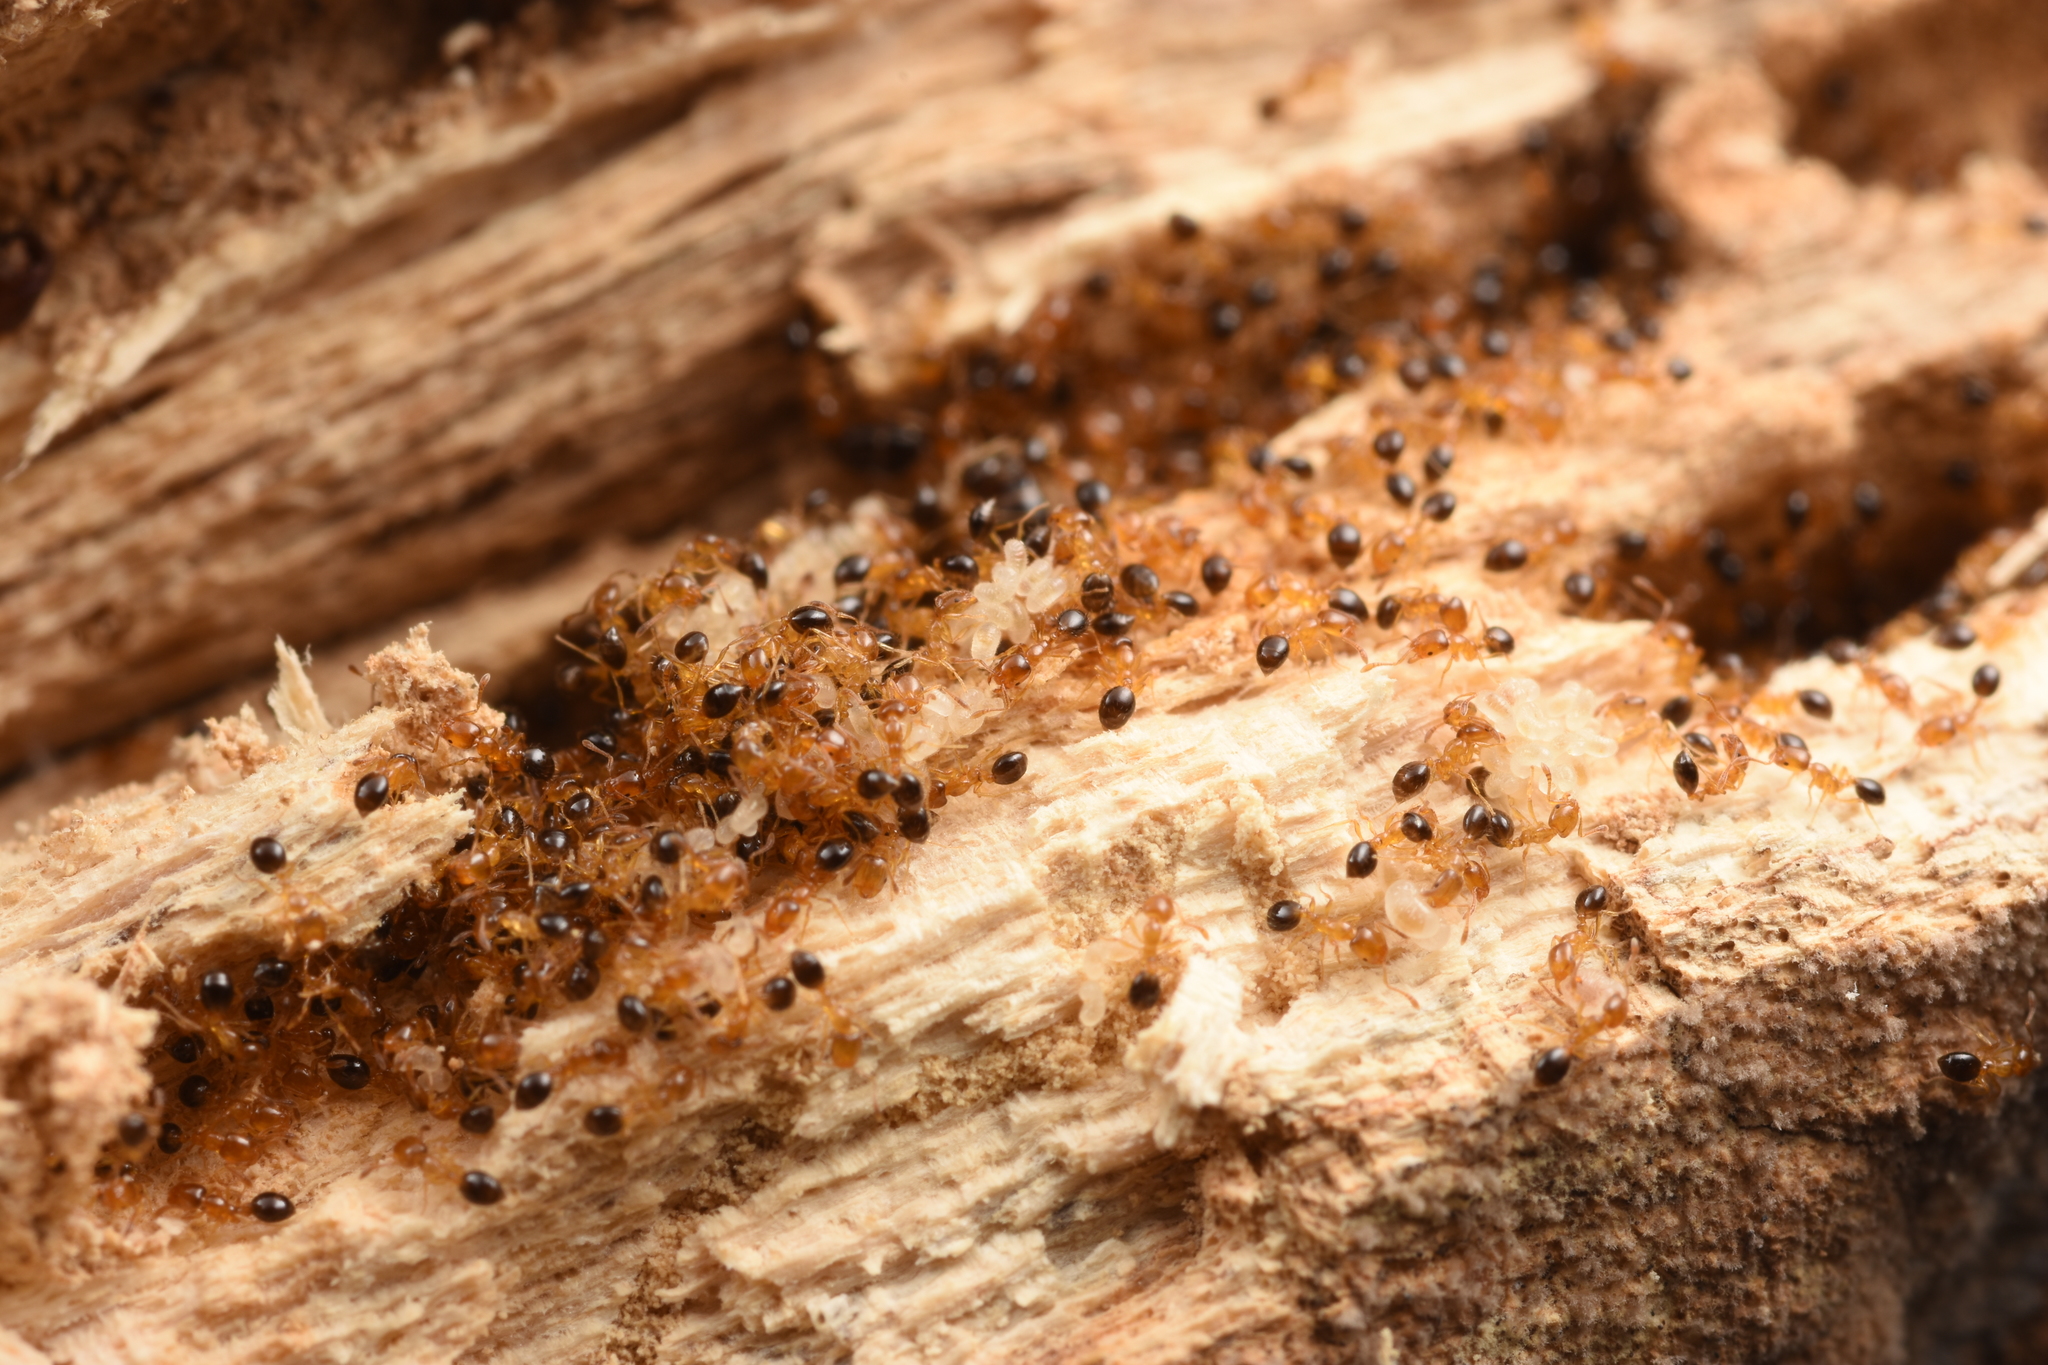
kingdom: Animalia
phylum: Arthropoda
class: Insecta
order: Hymenoptera
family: Formicidae
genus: Monomorium
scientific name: Monomorium intrudens
